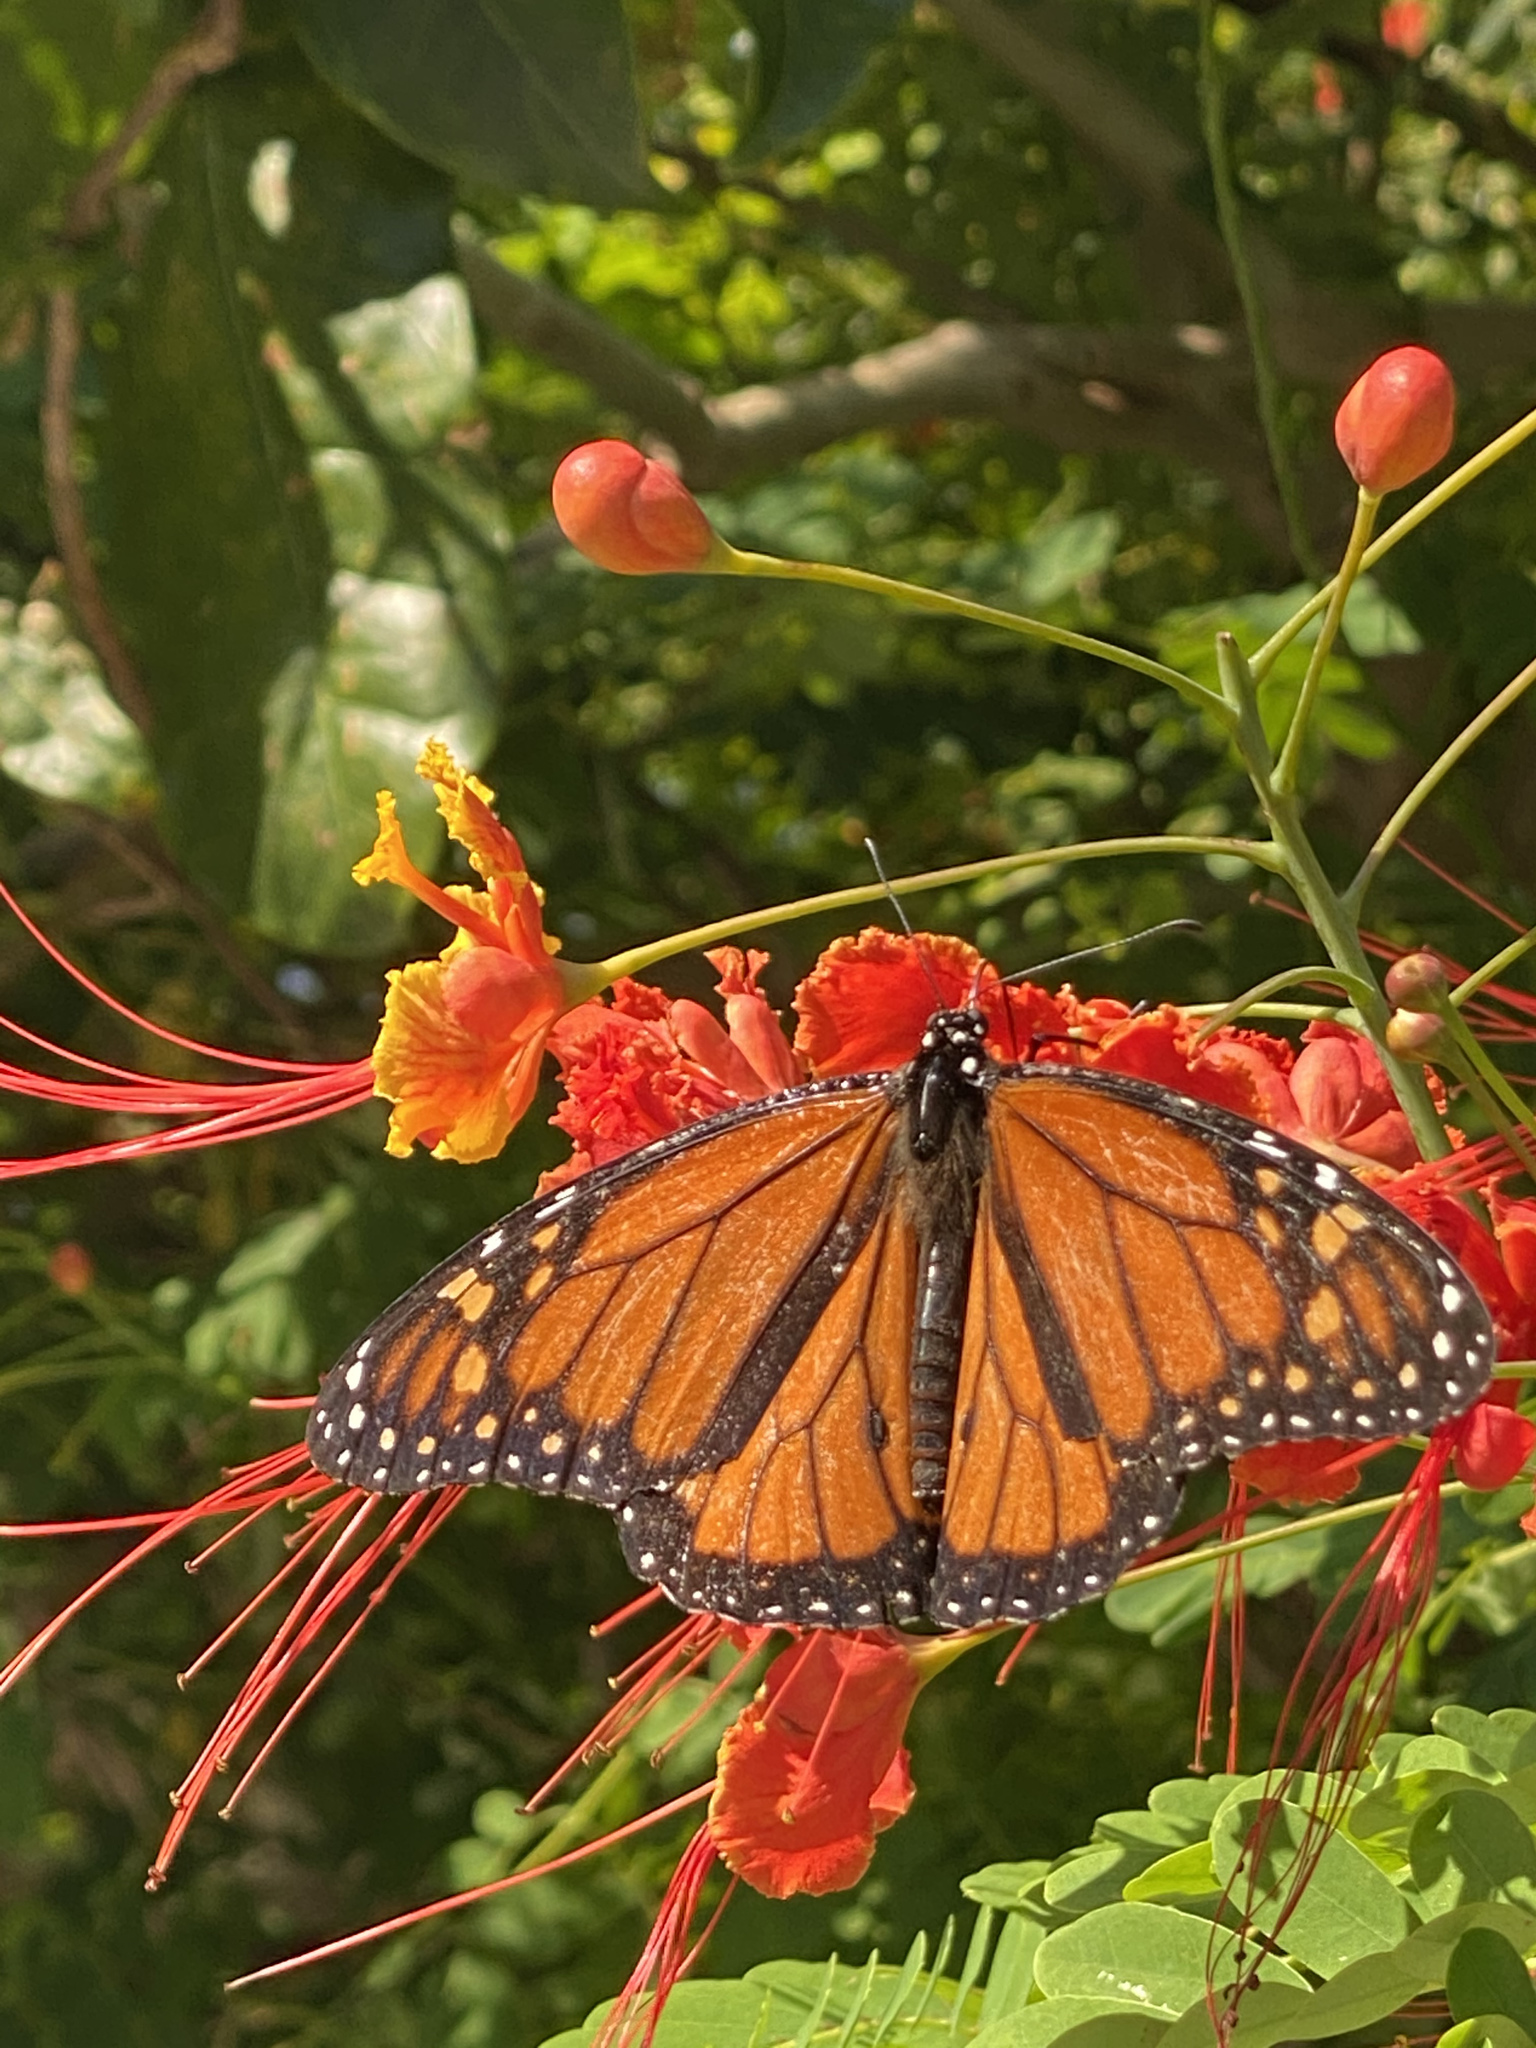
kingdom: Animalia
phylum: Arthropoda
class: Insecta
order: Lepidoptera
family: Nymphalidae
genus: Danaus
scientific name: Danaus plexippus
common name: Monarch
